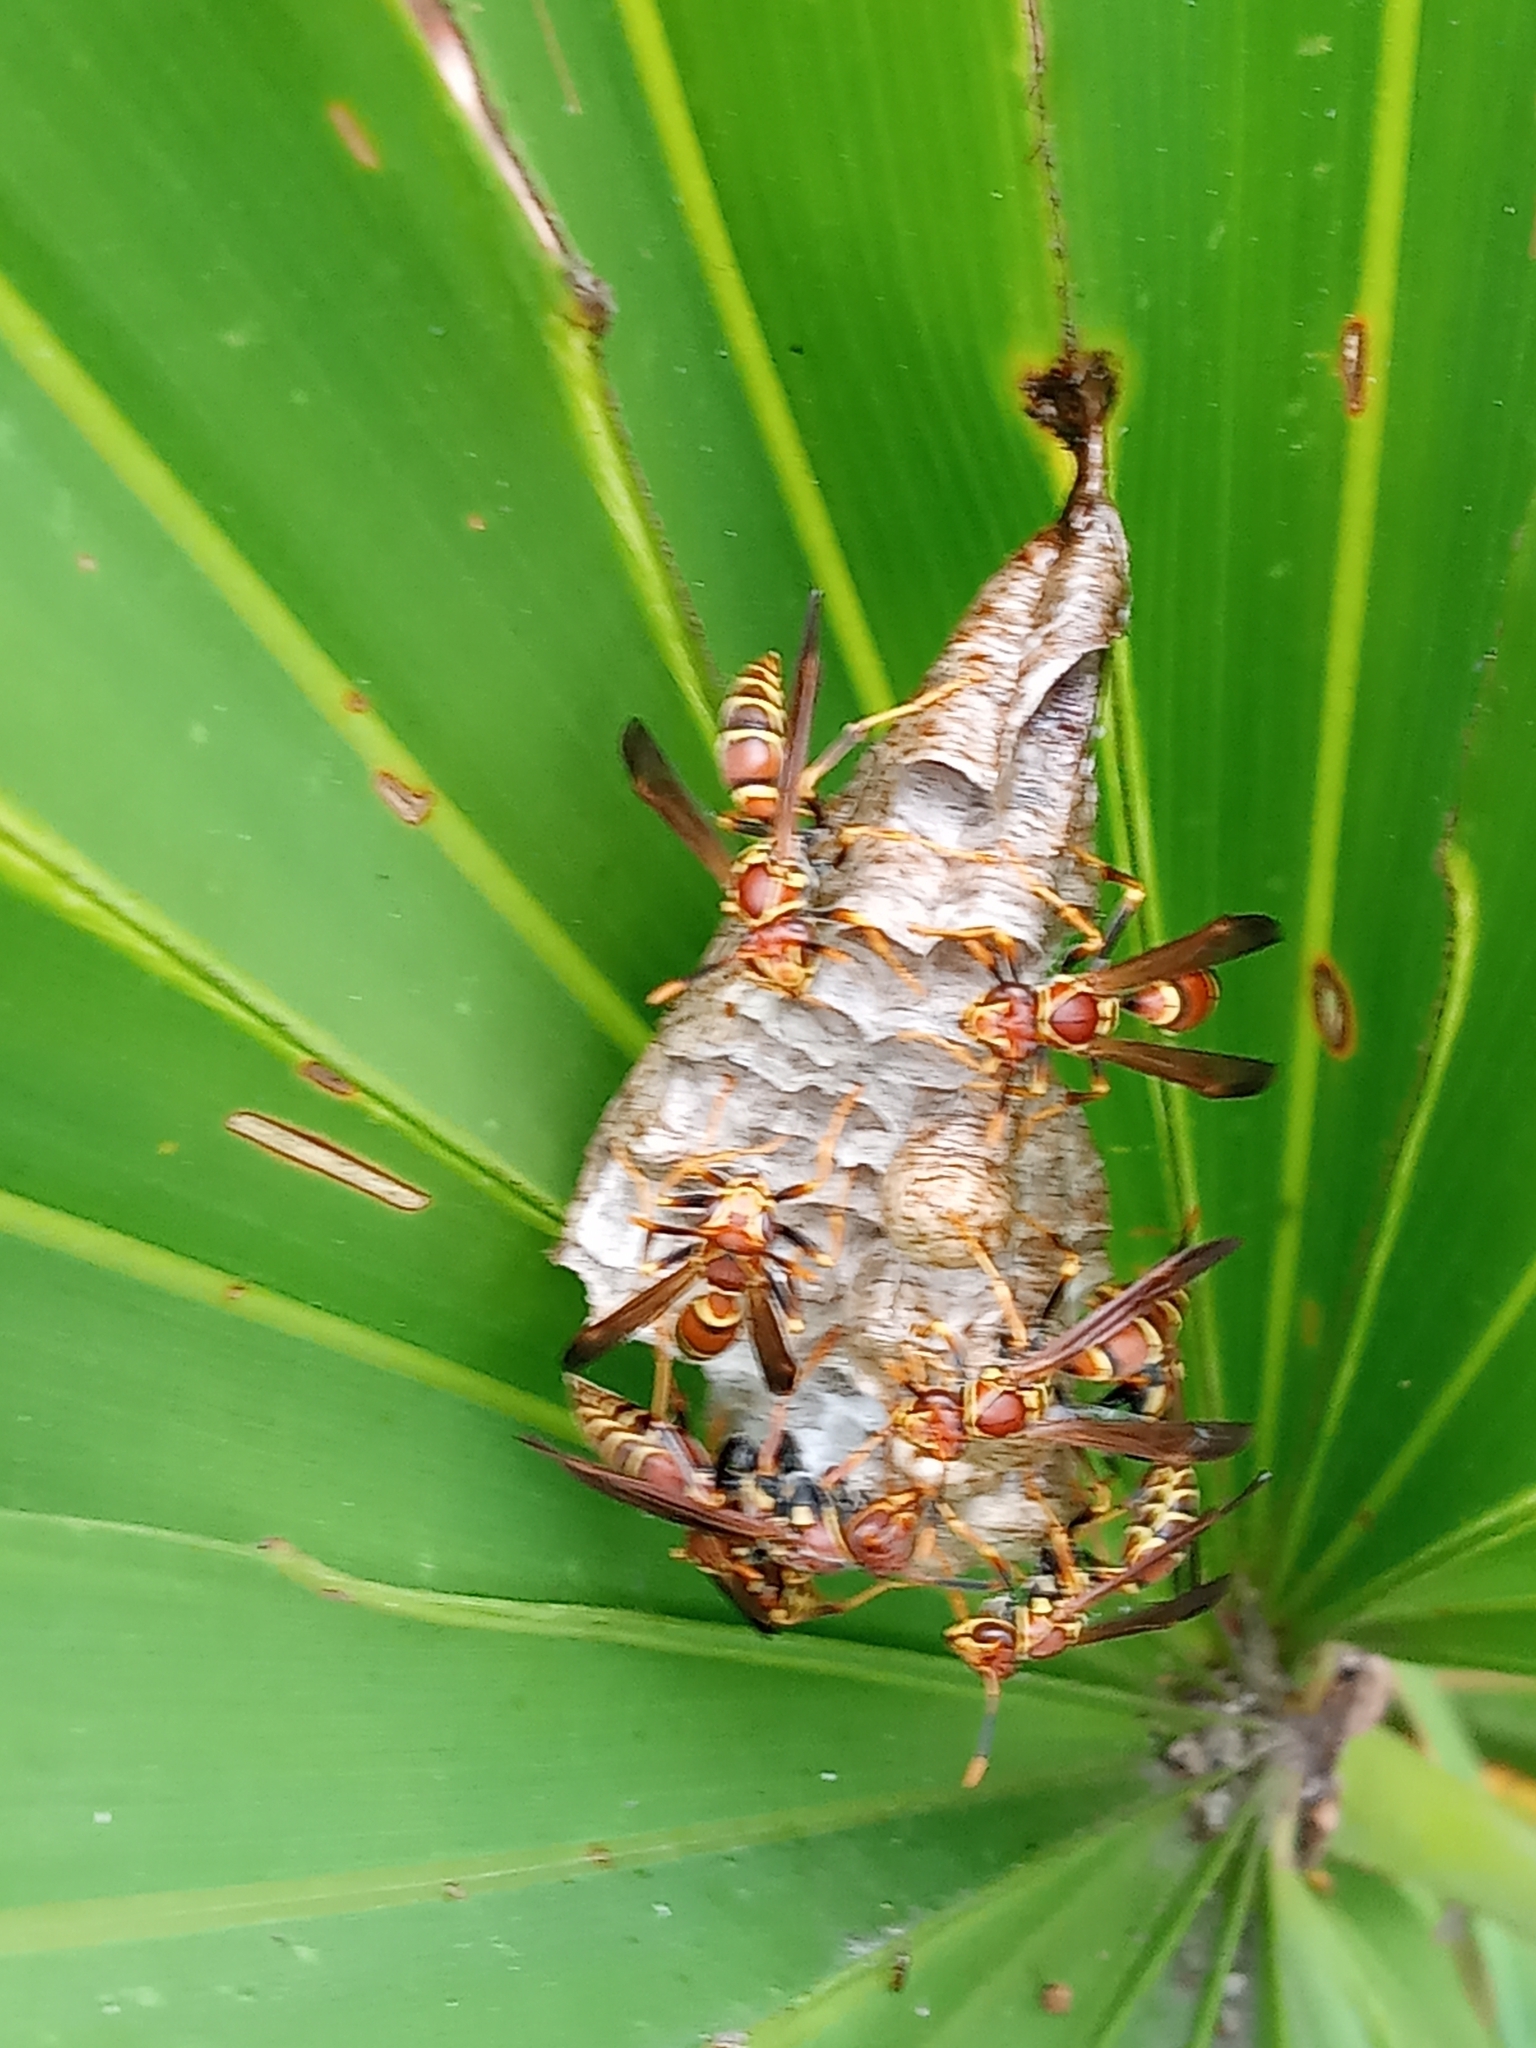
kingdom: Animalia
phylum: Arthropoda
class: Insecta
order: Hymenoptera
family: Pompilidae
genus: Aphanilopterus
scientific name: Aphanilopterus
